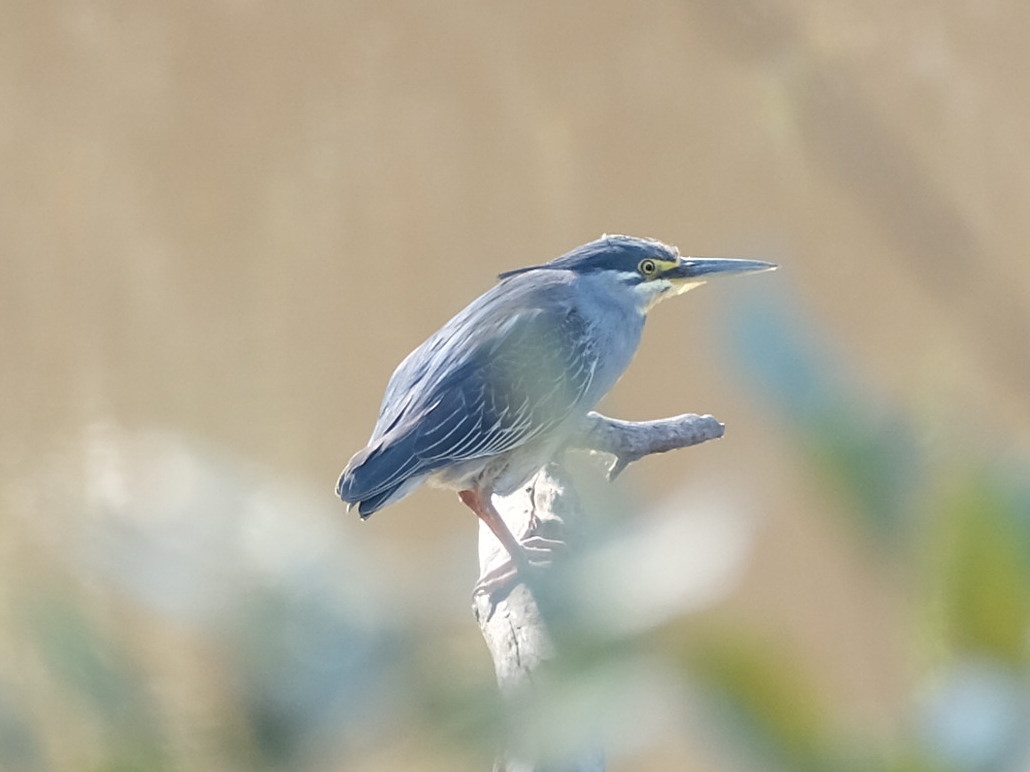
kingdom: Animalia
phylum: Chordata
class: Aves
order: Pelecaniformes
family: Ardeidae
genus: Butorides
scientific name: Butorides striata
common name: Striated heron
